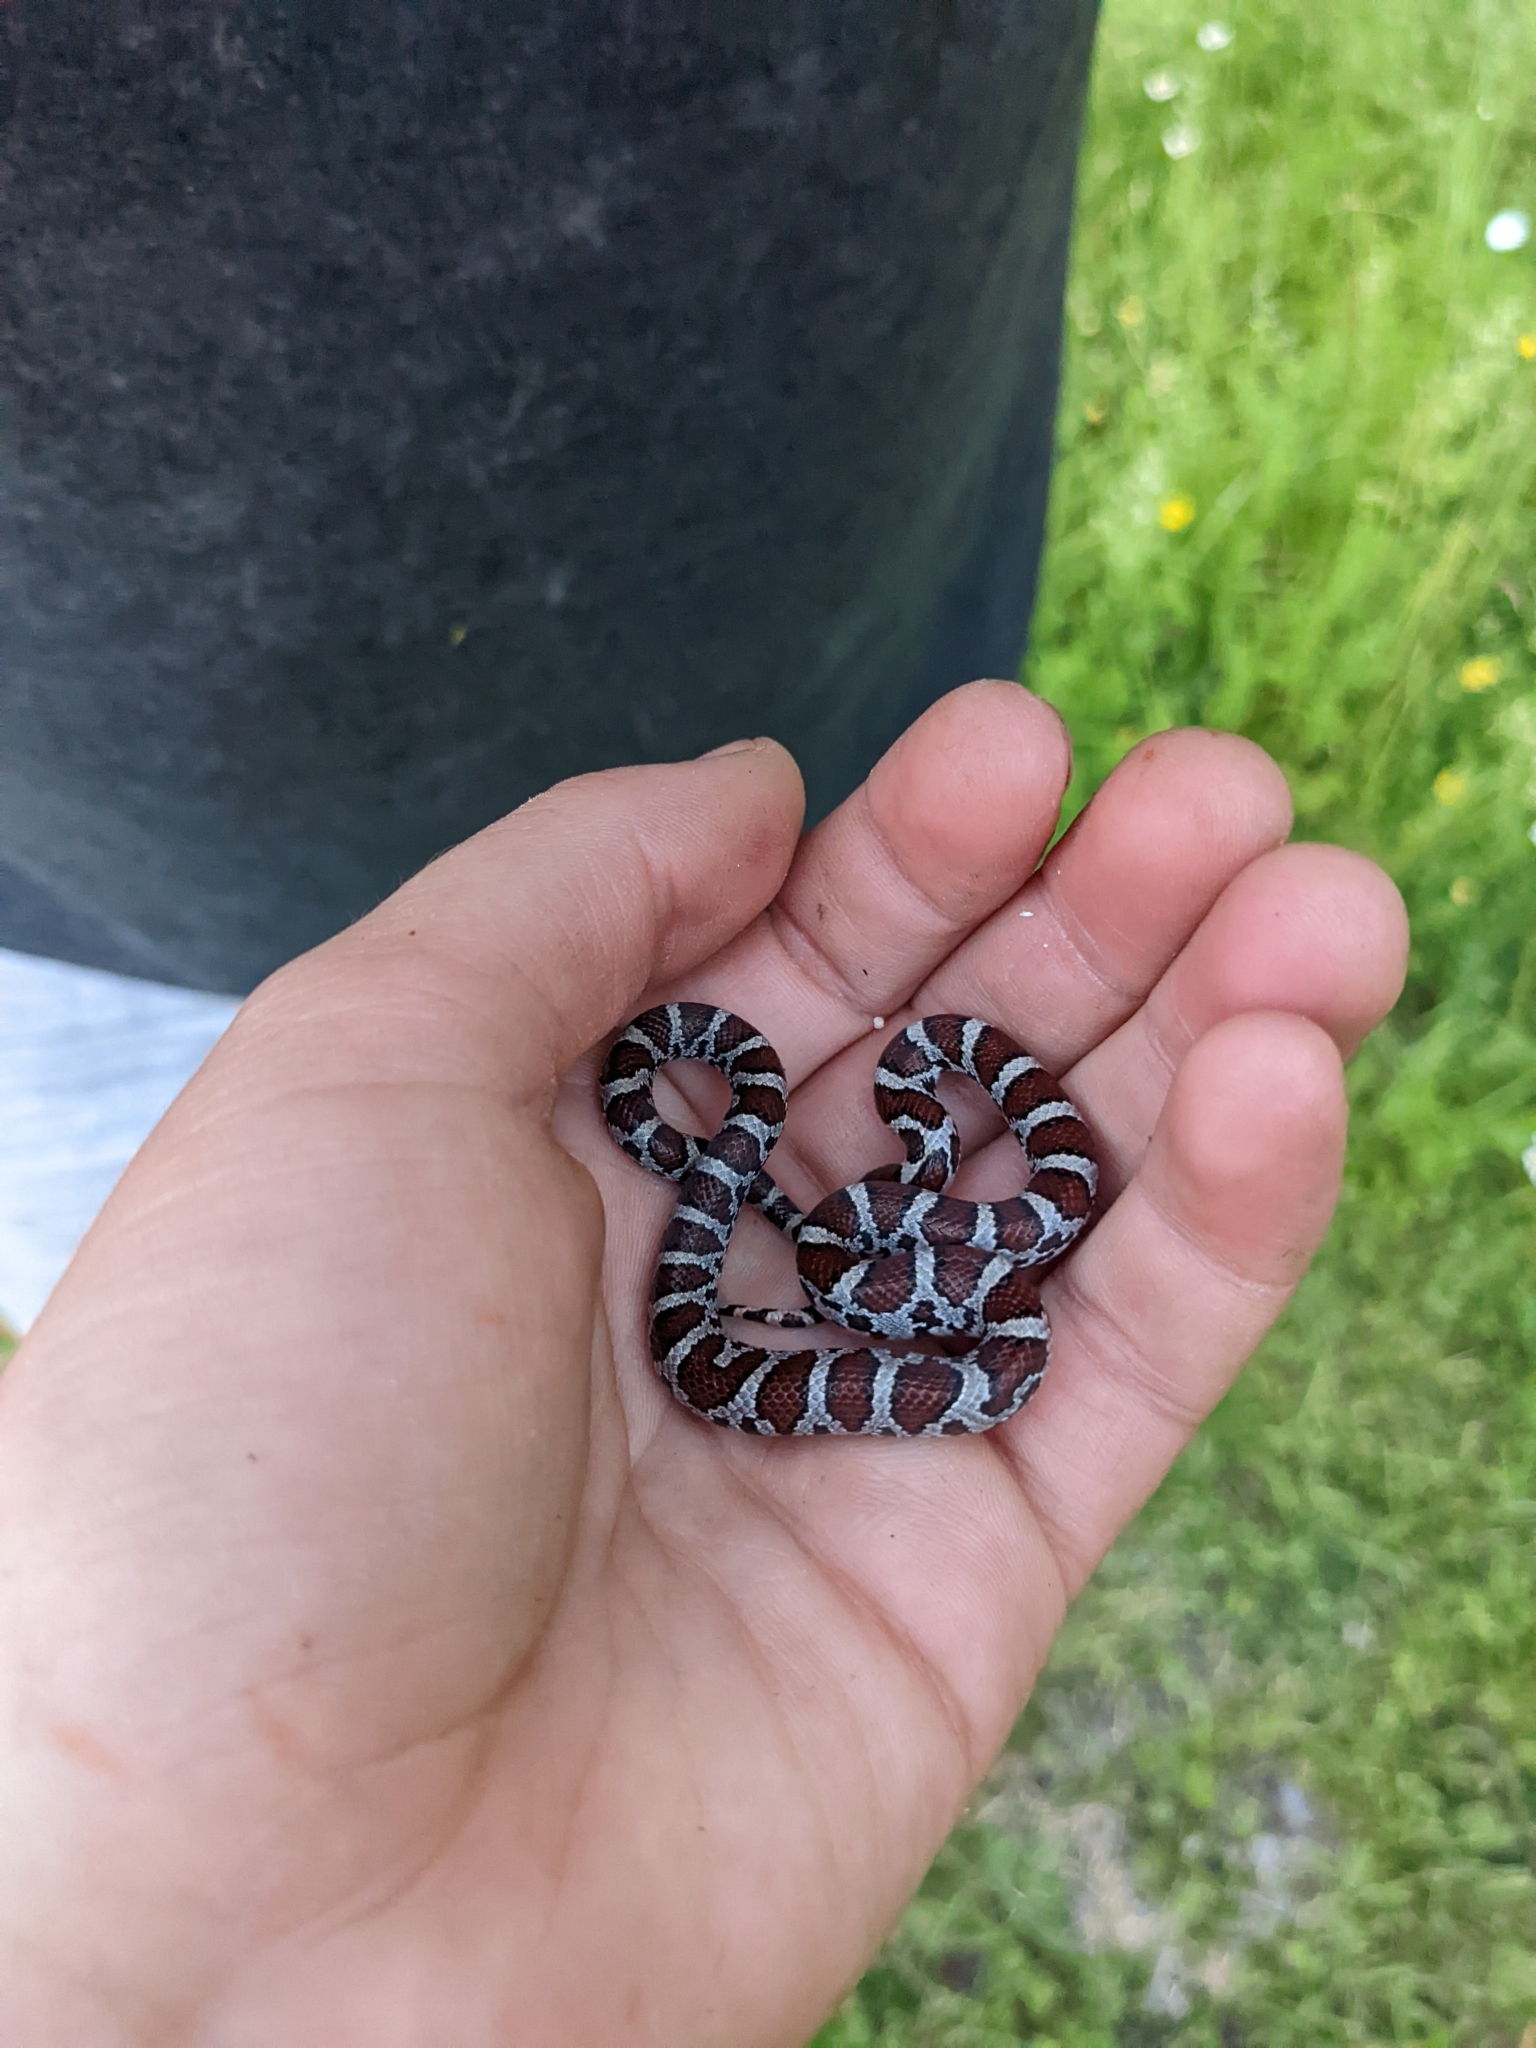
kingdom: Animalia
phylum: Chordata
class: Squamata
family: Colubridae
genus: Lampropeltis
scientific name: Lampropeltis triangulum
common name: Eastern milksnake
